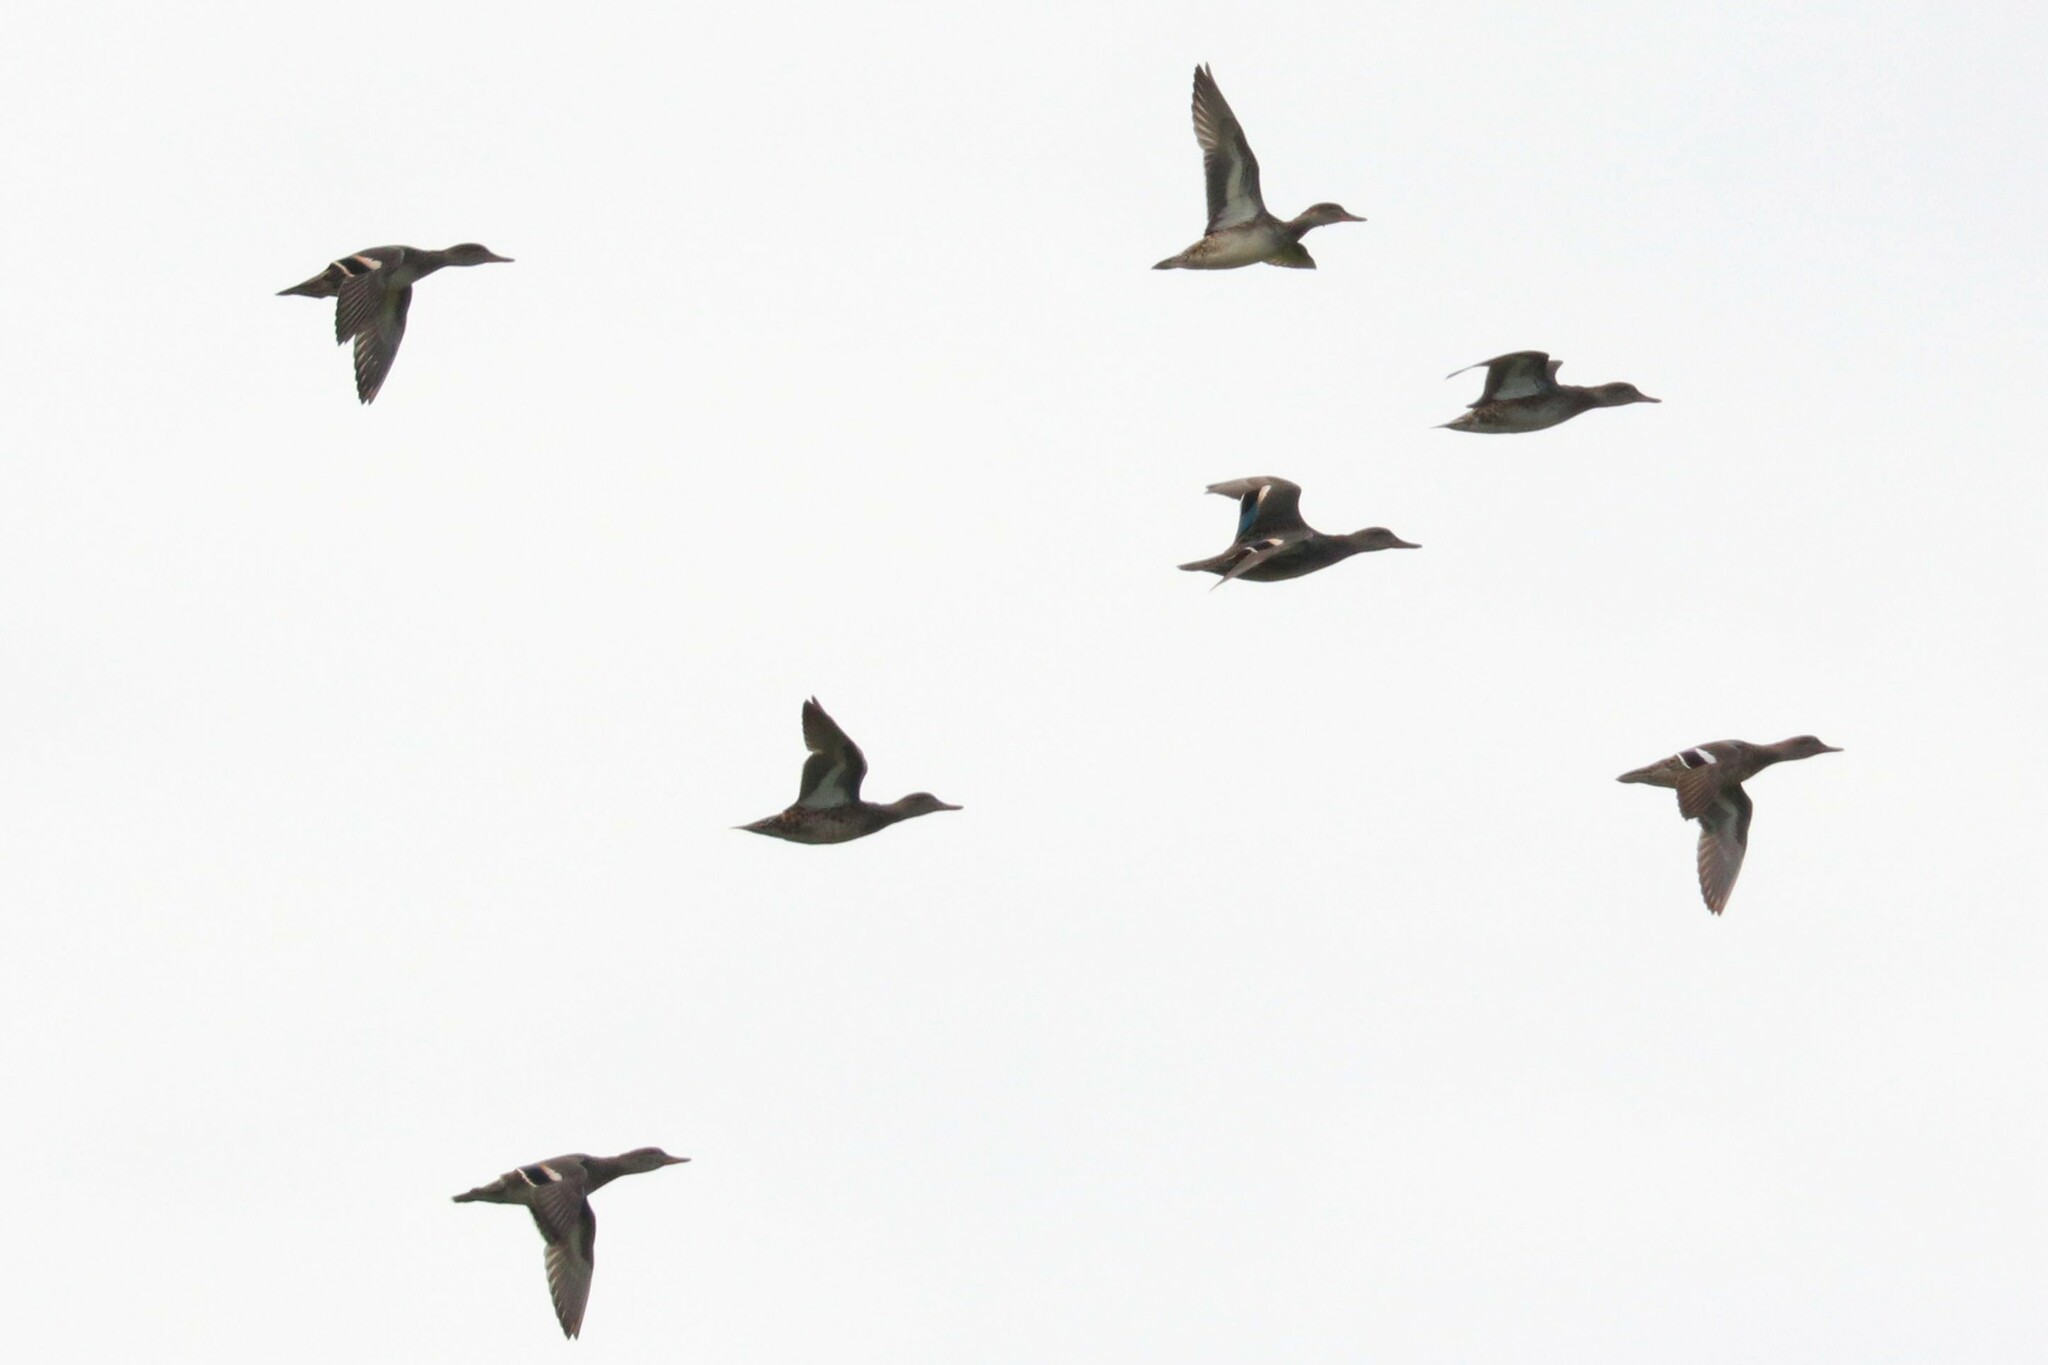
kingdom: Animalia
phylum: Chordata
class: Aves
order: Anseriformes
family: Anatidae
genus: Anas
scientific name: Anas crecca
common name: Eurasian teal
